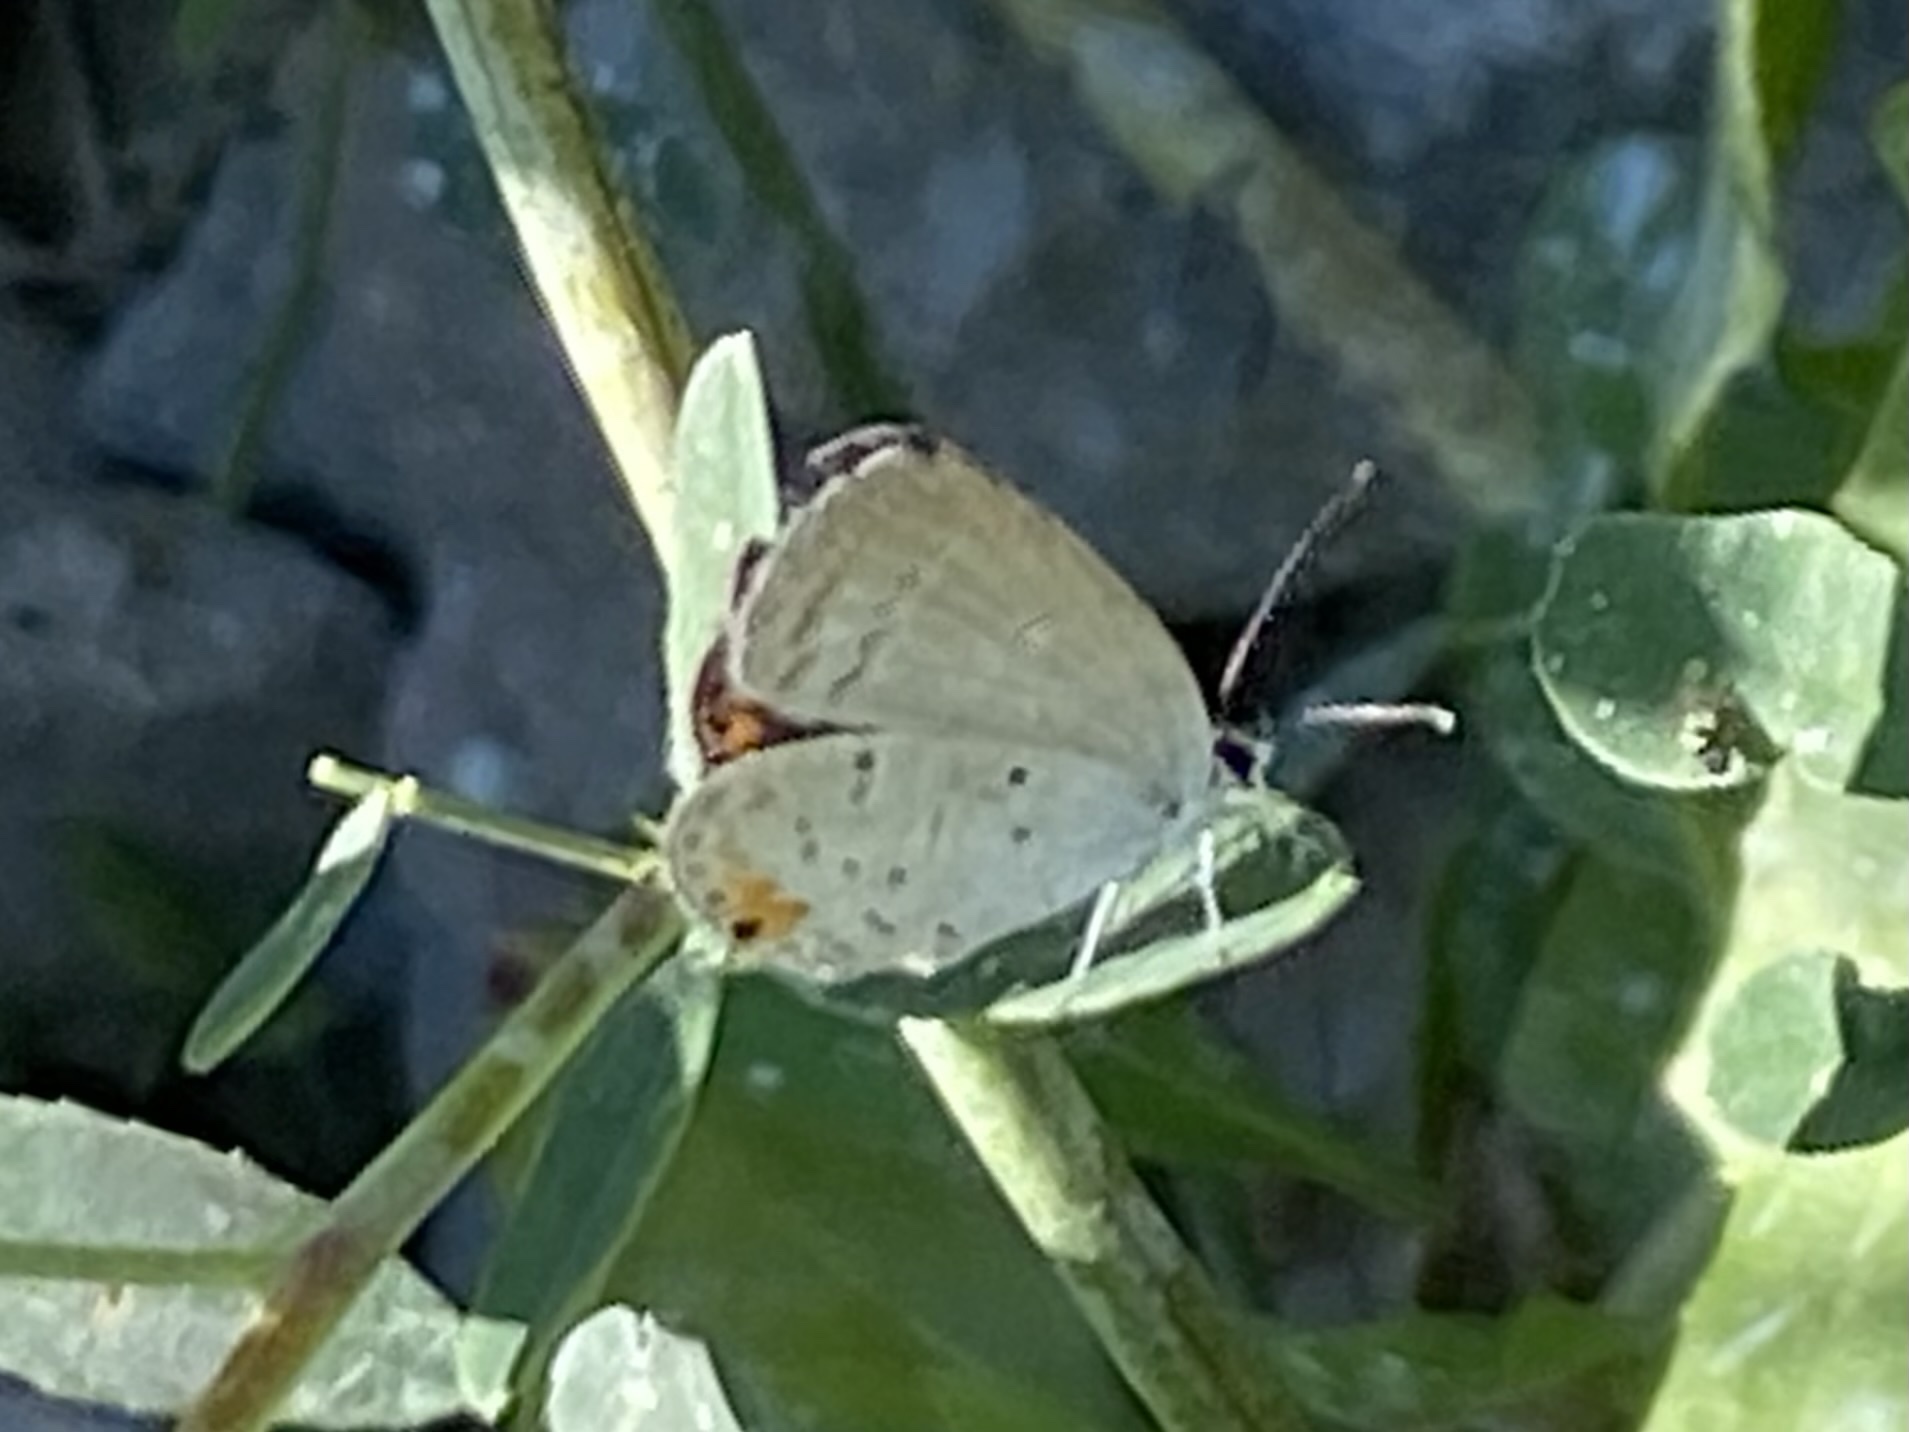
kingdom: Animalia
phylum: Arthropoda
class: Insecta
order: Lepidoptera
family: Lycaenidae
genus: Elkalyce
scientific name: Elkalyce comyntas
